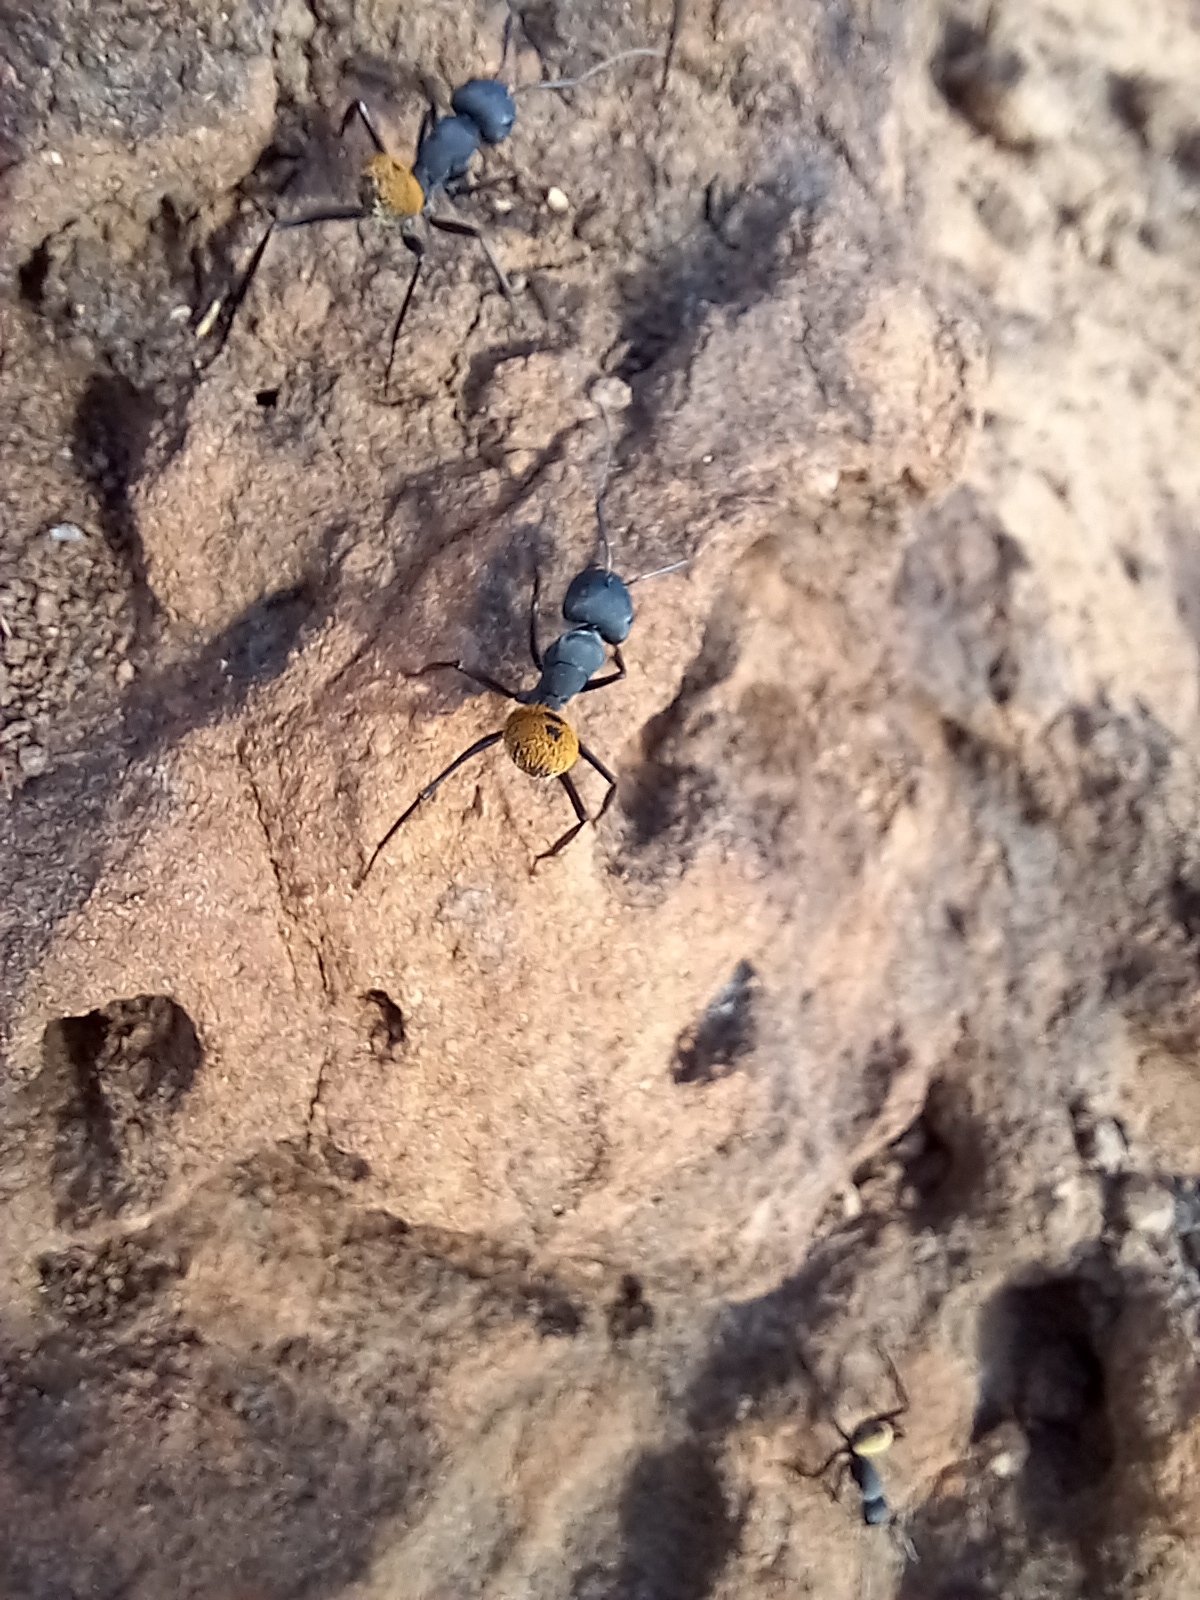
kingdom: Animalia
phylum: Arthropoda
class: Insecta
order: Hymenoptera
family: Formicidae
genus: Camponotus
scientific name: Camponotus fulvopilosus
